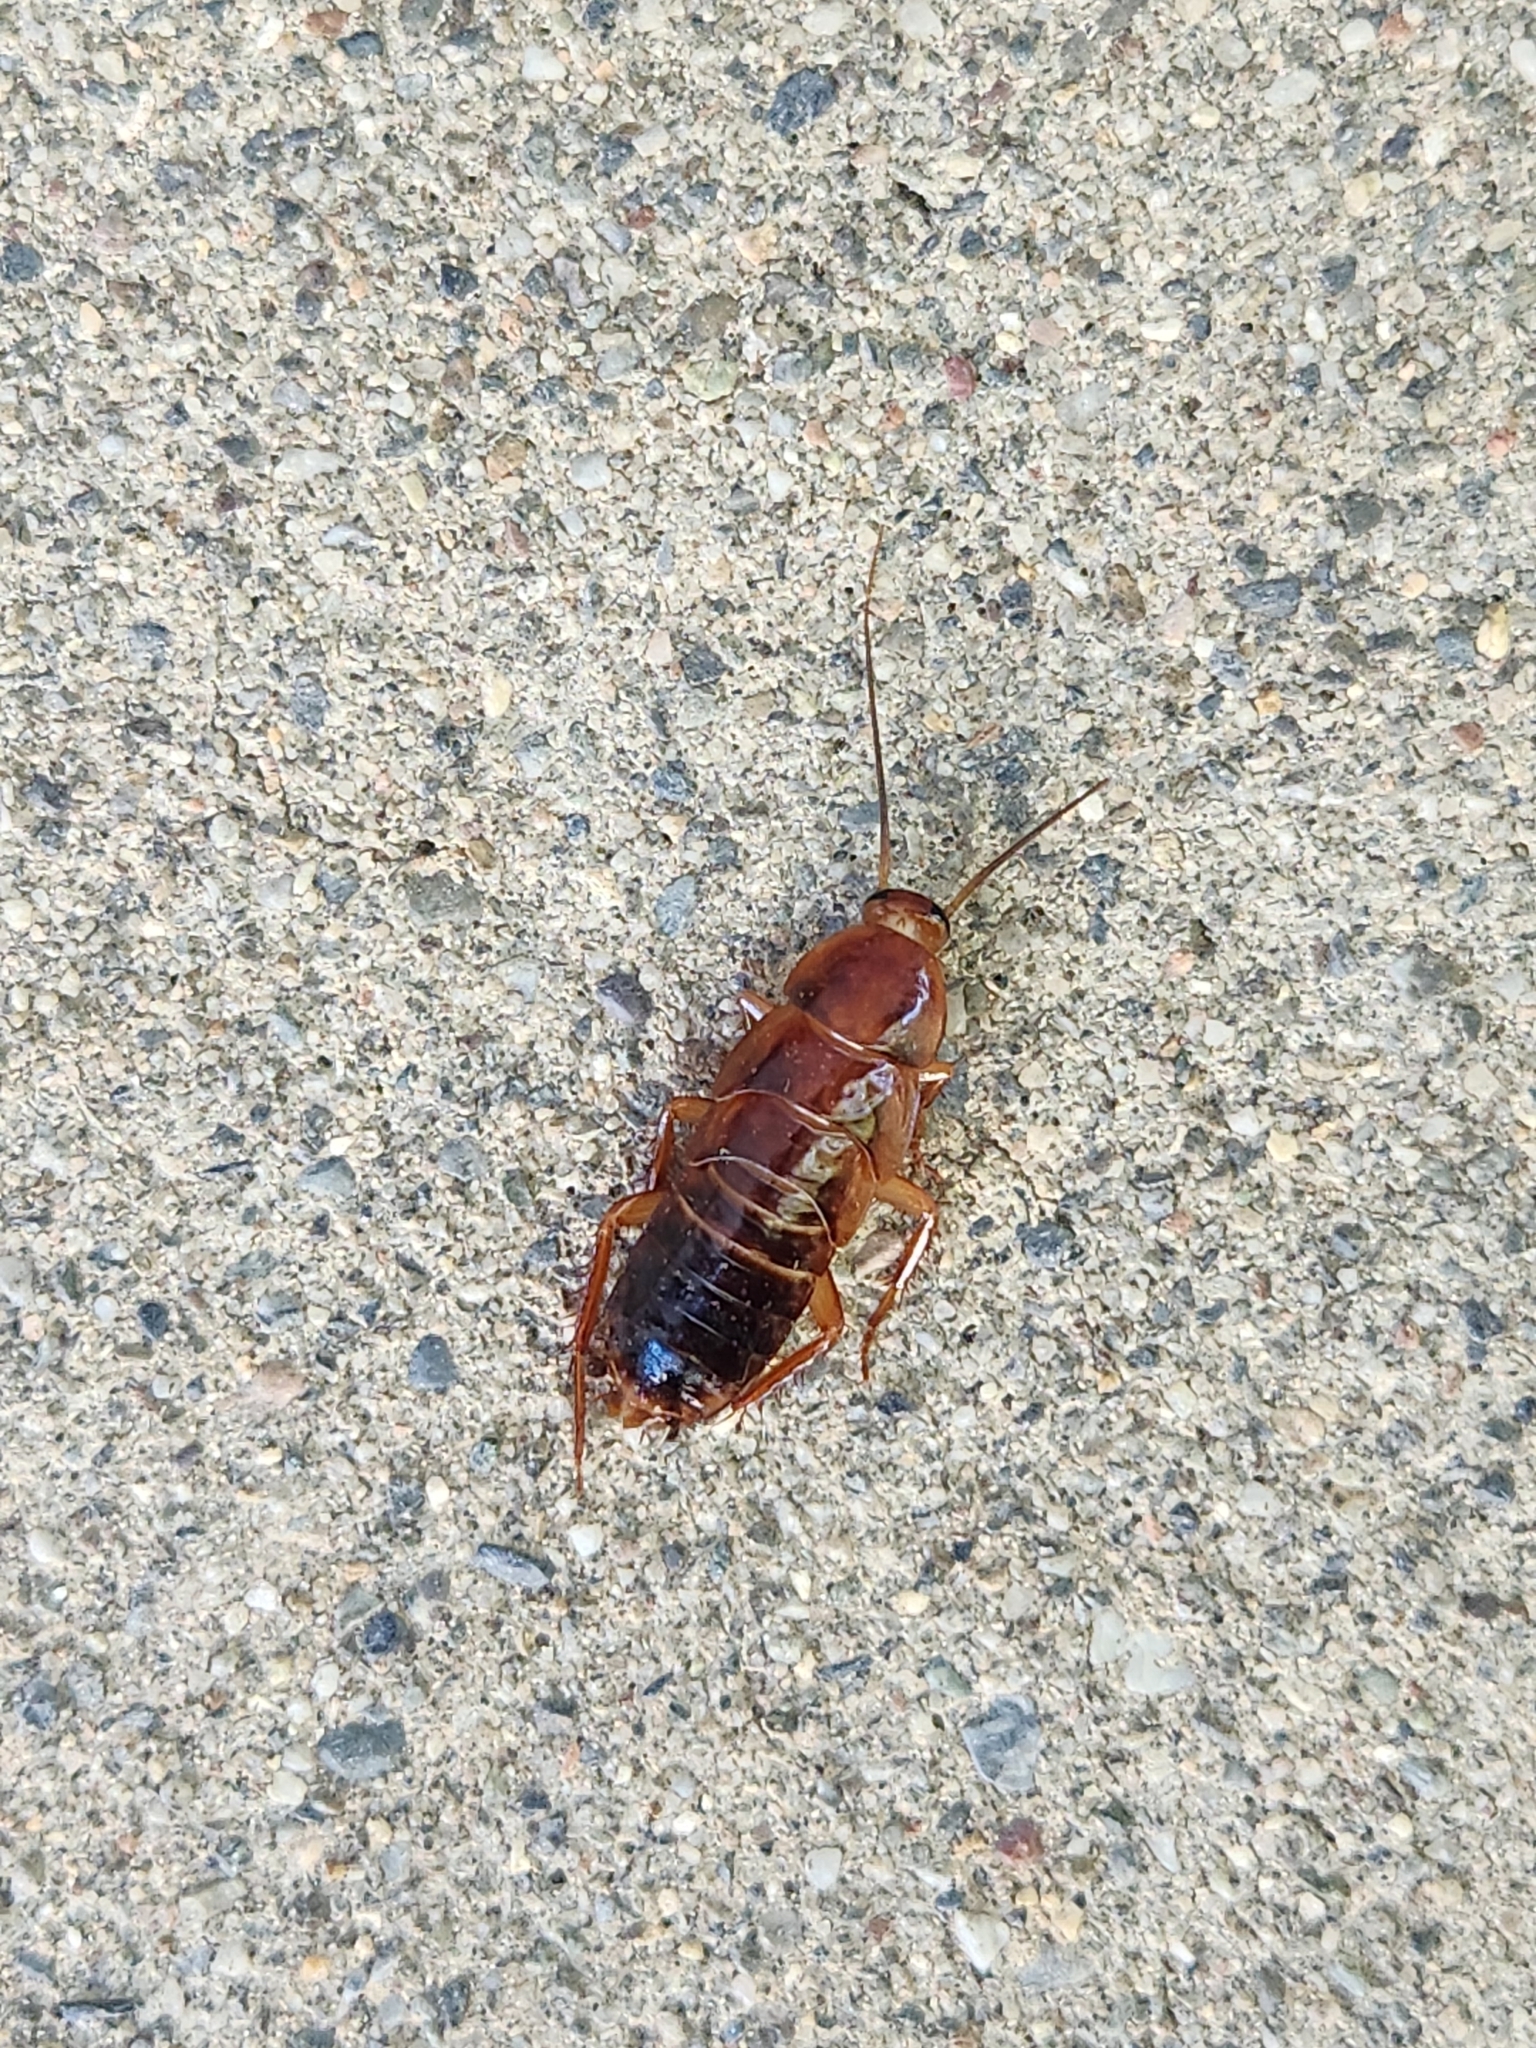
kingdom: Animalia
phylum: Arthropoda
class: Insecta
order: Blattodea
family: Ectobiidae
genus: Parcoblatta
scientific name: Parcoblatta americana
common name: Western wood cockroach
